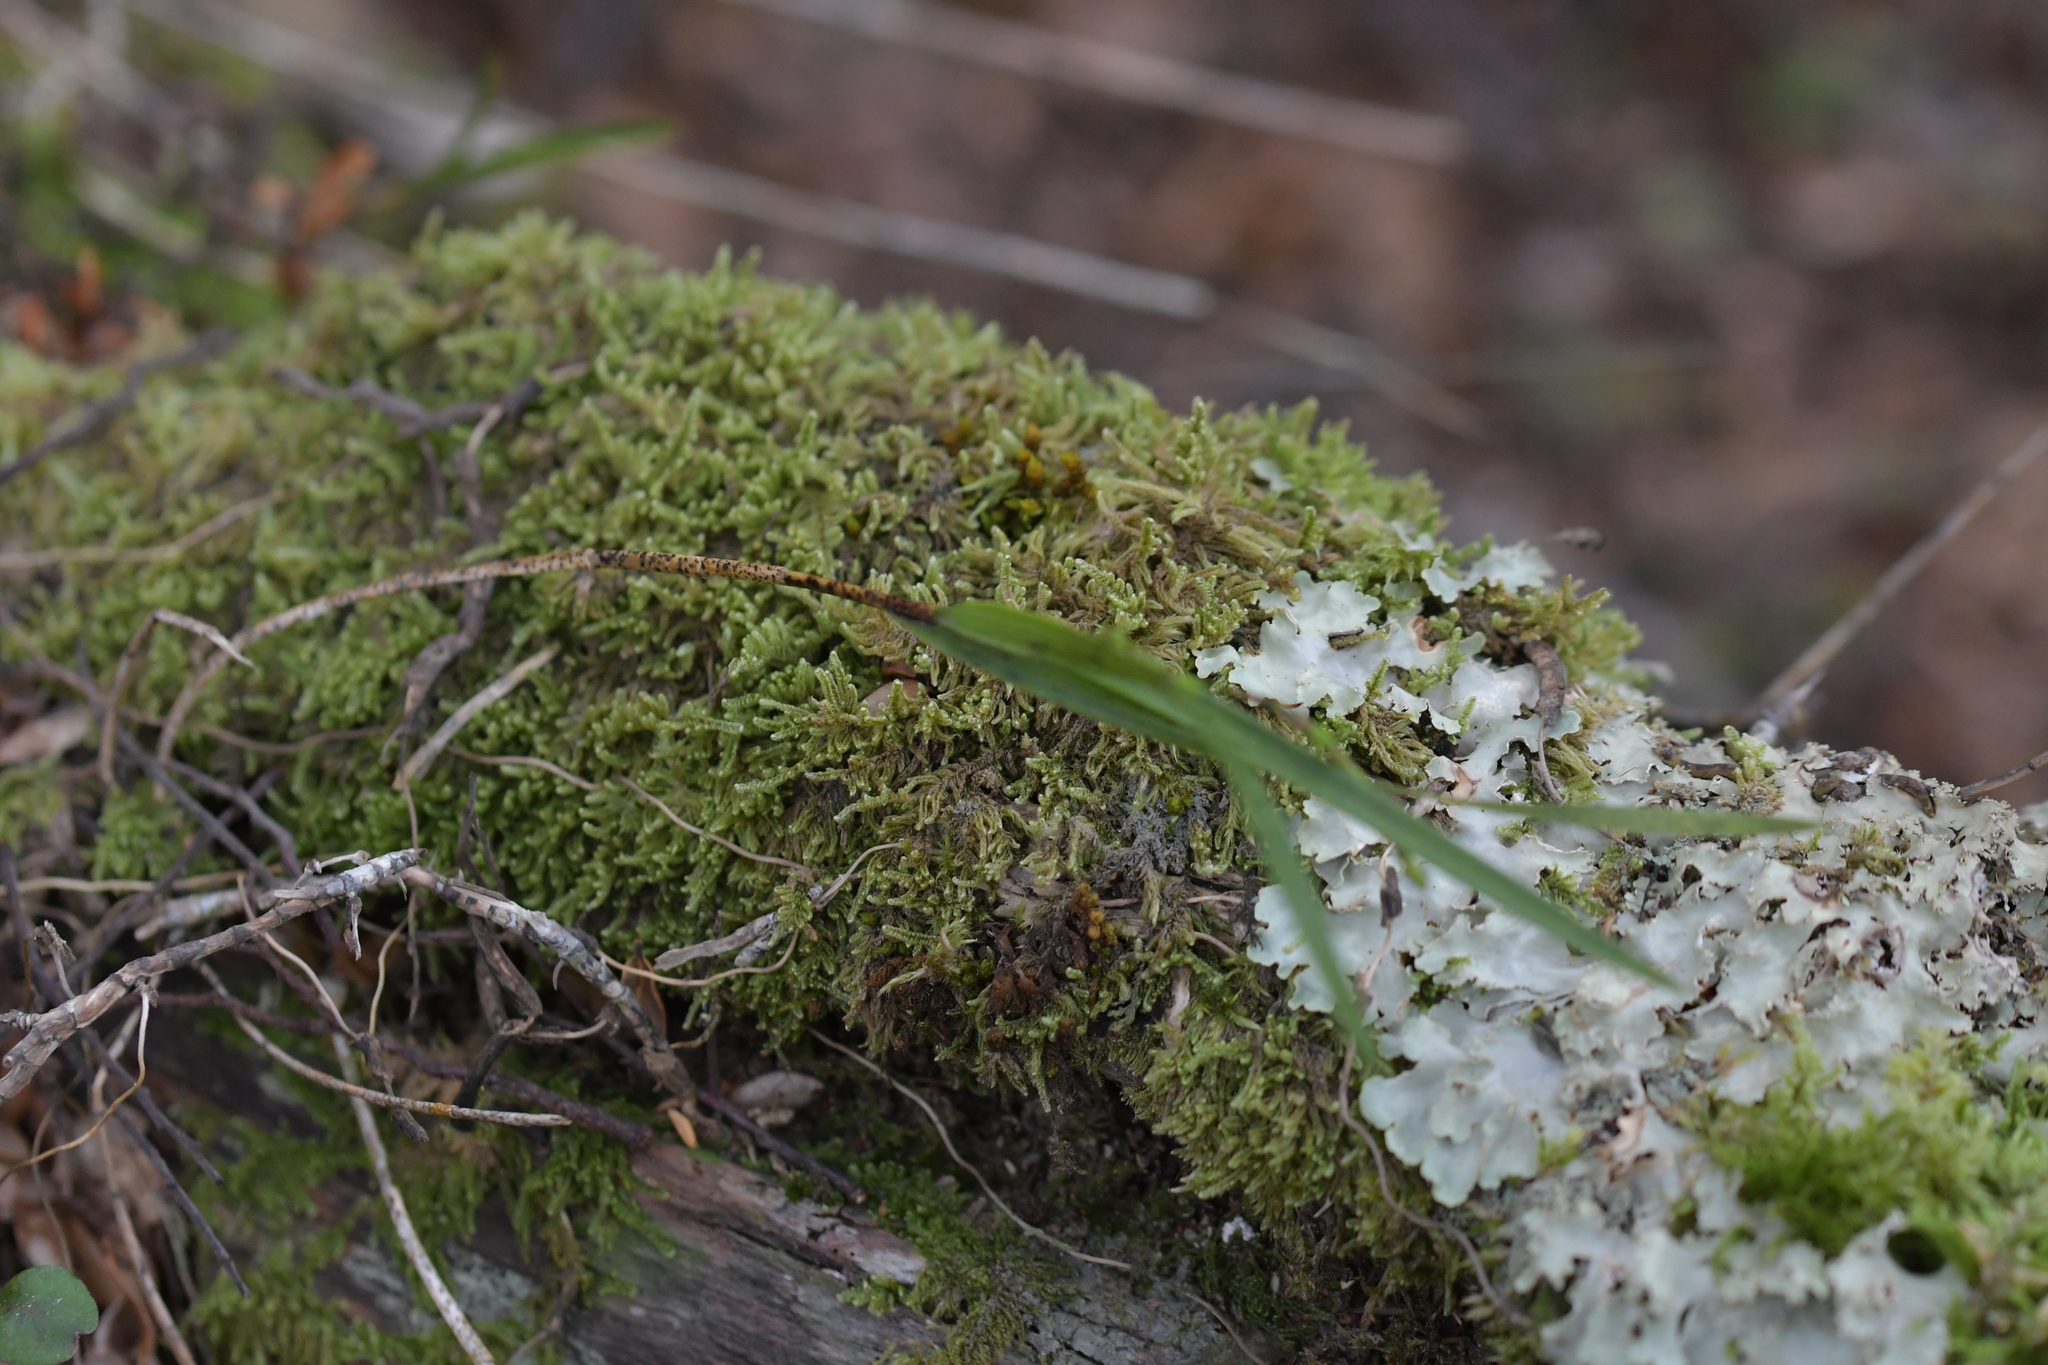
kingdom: Plantae
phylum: Tracheophyta
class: Liliopsida
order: Asparagales
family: Orchidaceae
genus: Earina
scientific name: Earina mucronata
